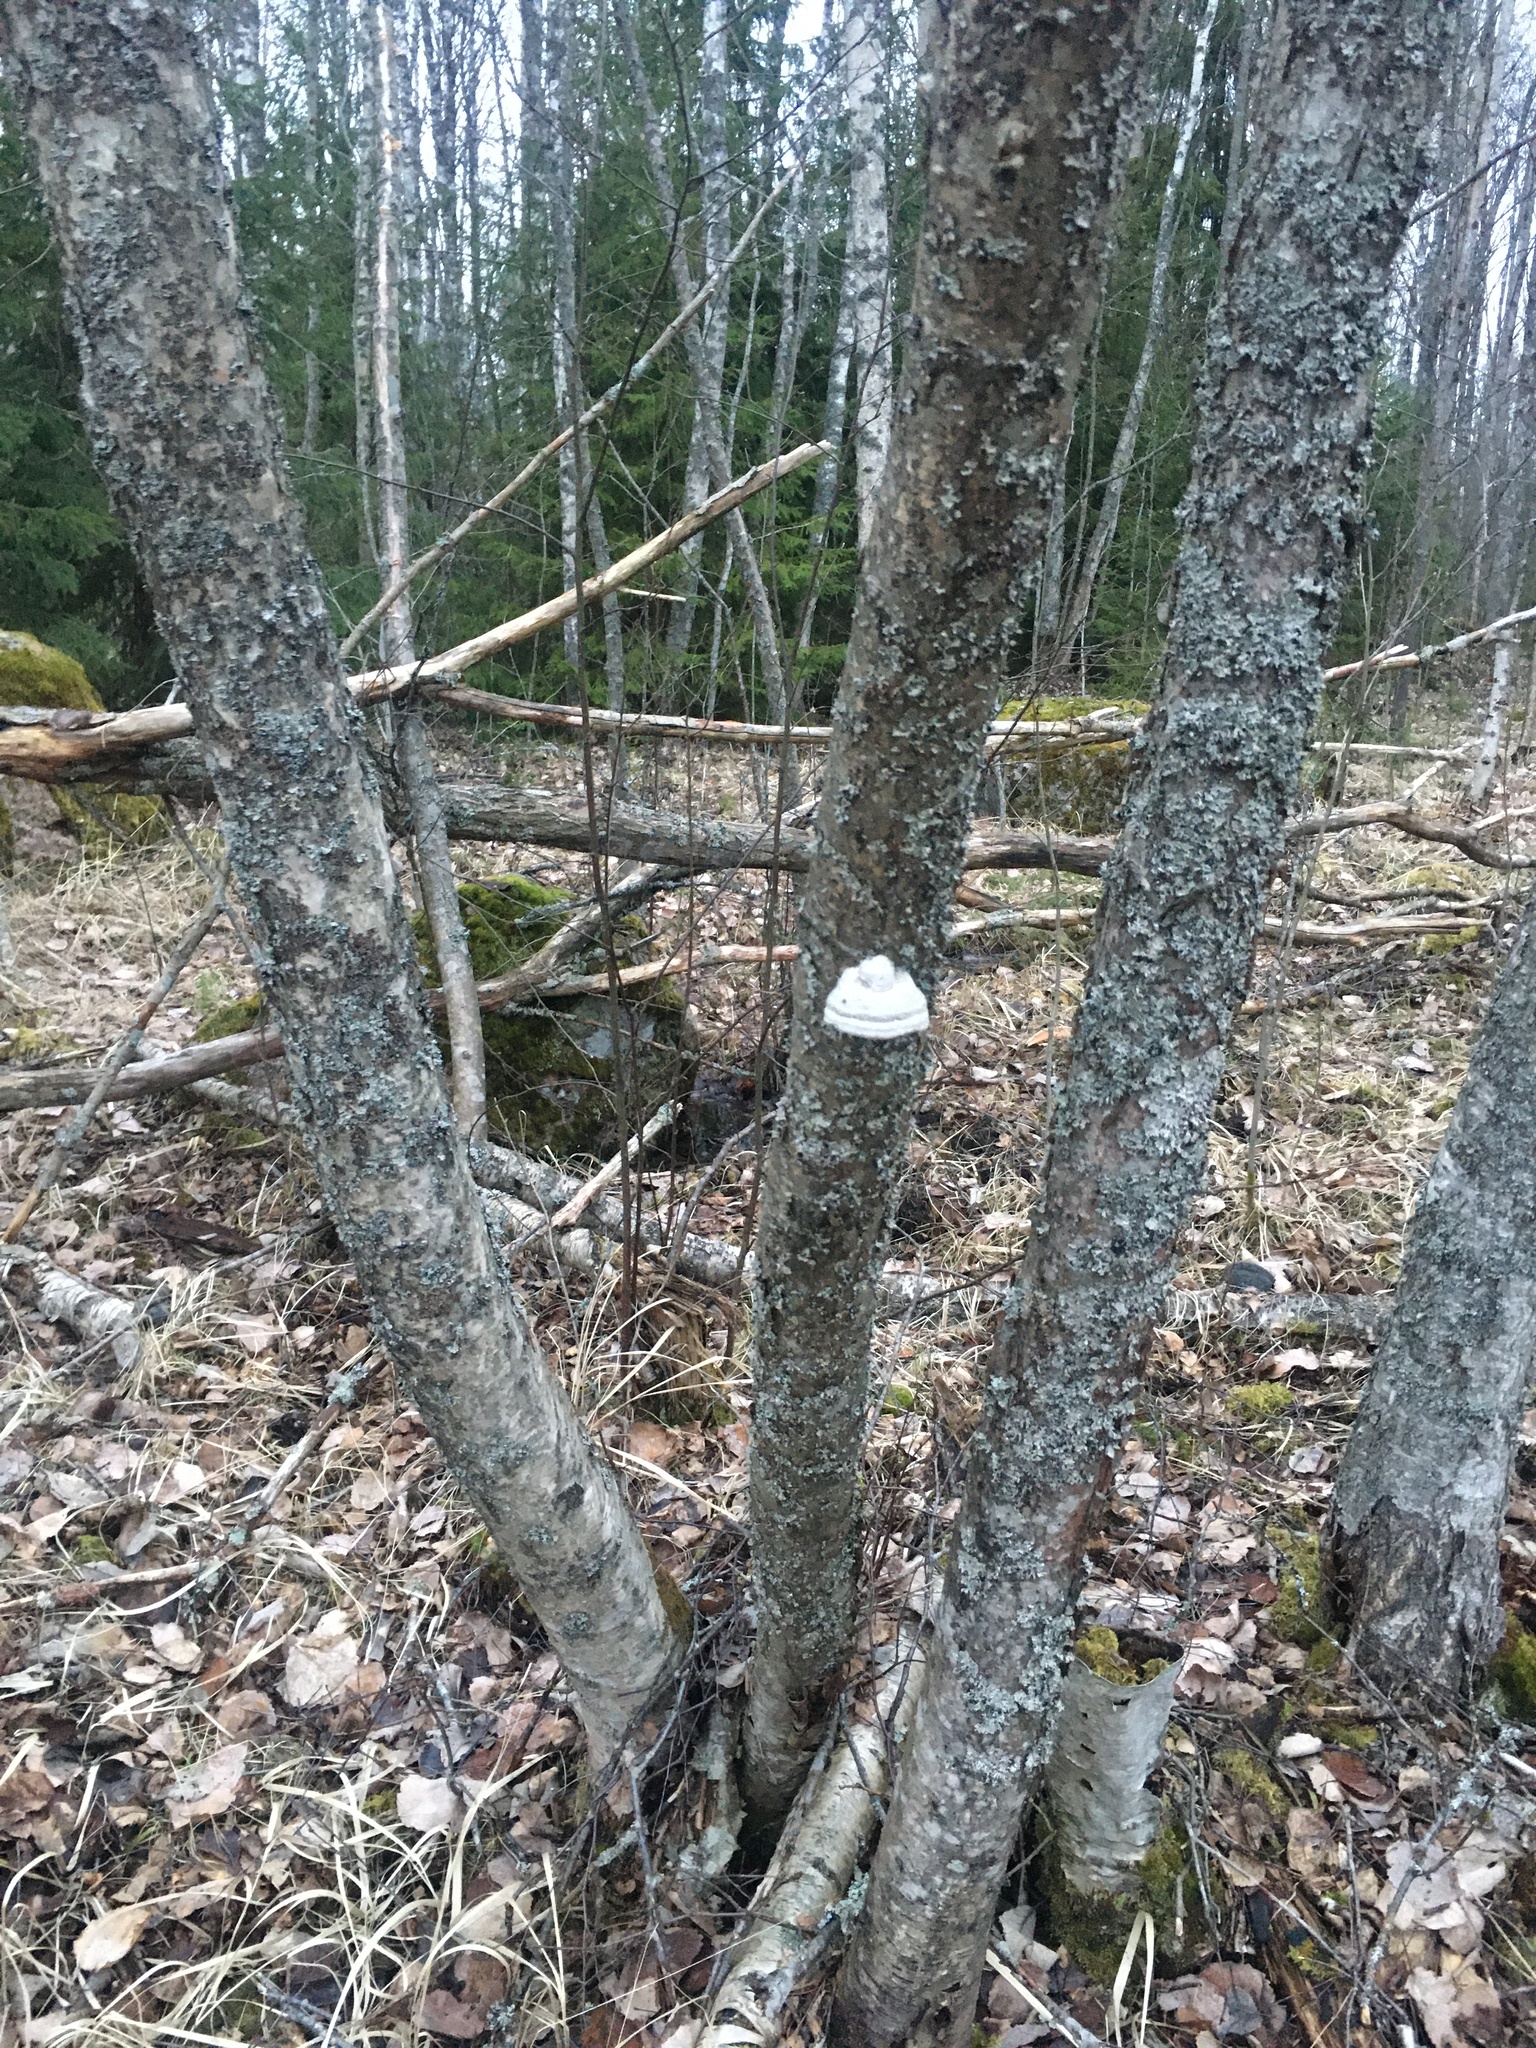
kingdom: Fungi
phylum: Basidiomycota
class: Agaricomycetes
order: Polyporales
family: Polyporaceae
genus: Fomes
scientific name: Fomes fomentarius
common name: Hoof fungus
